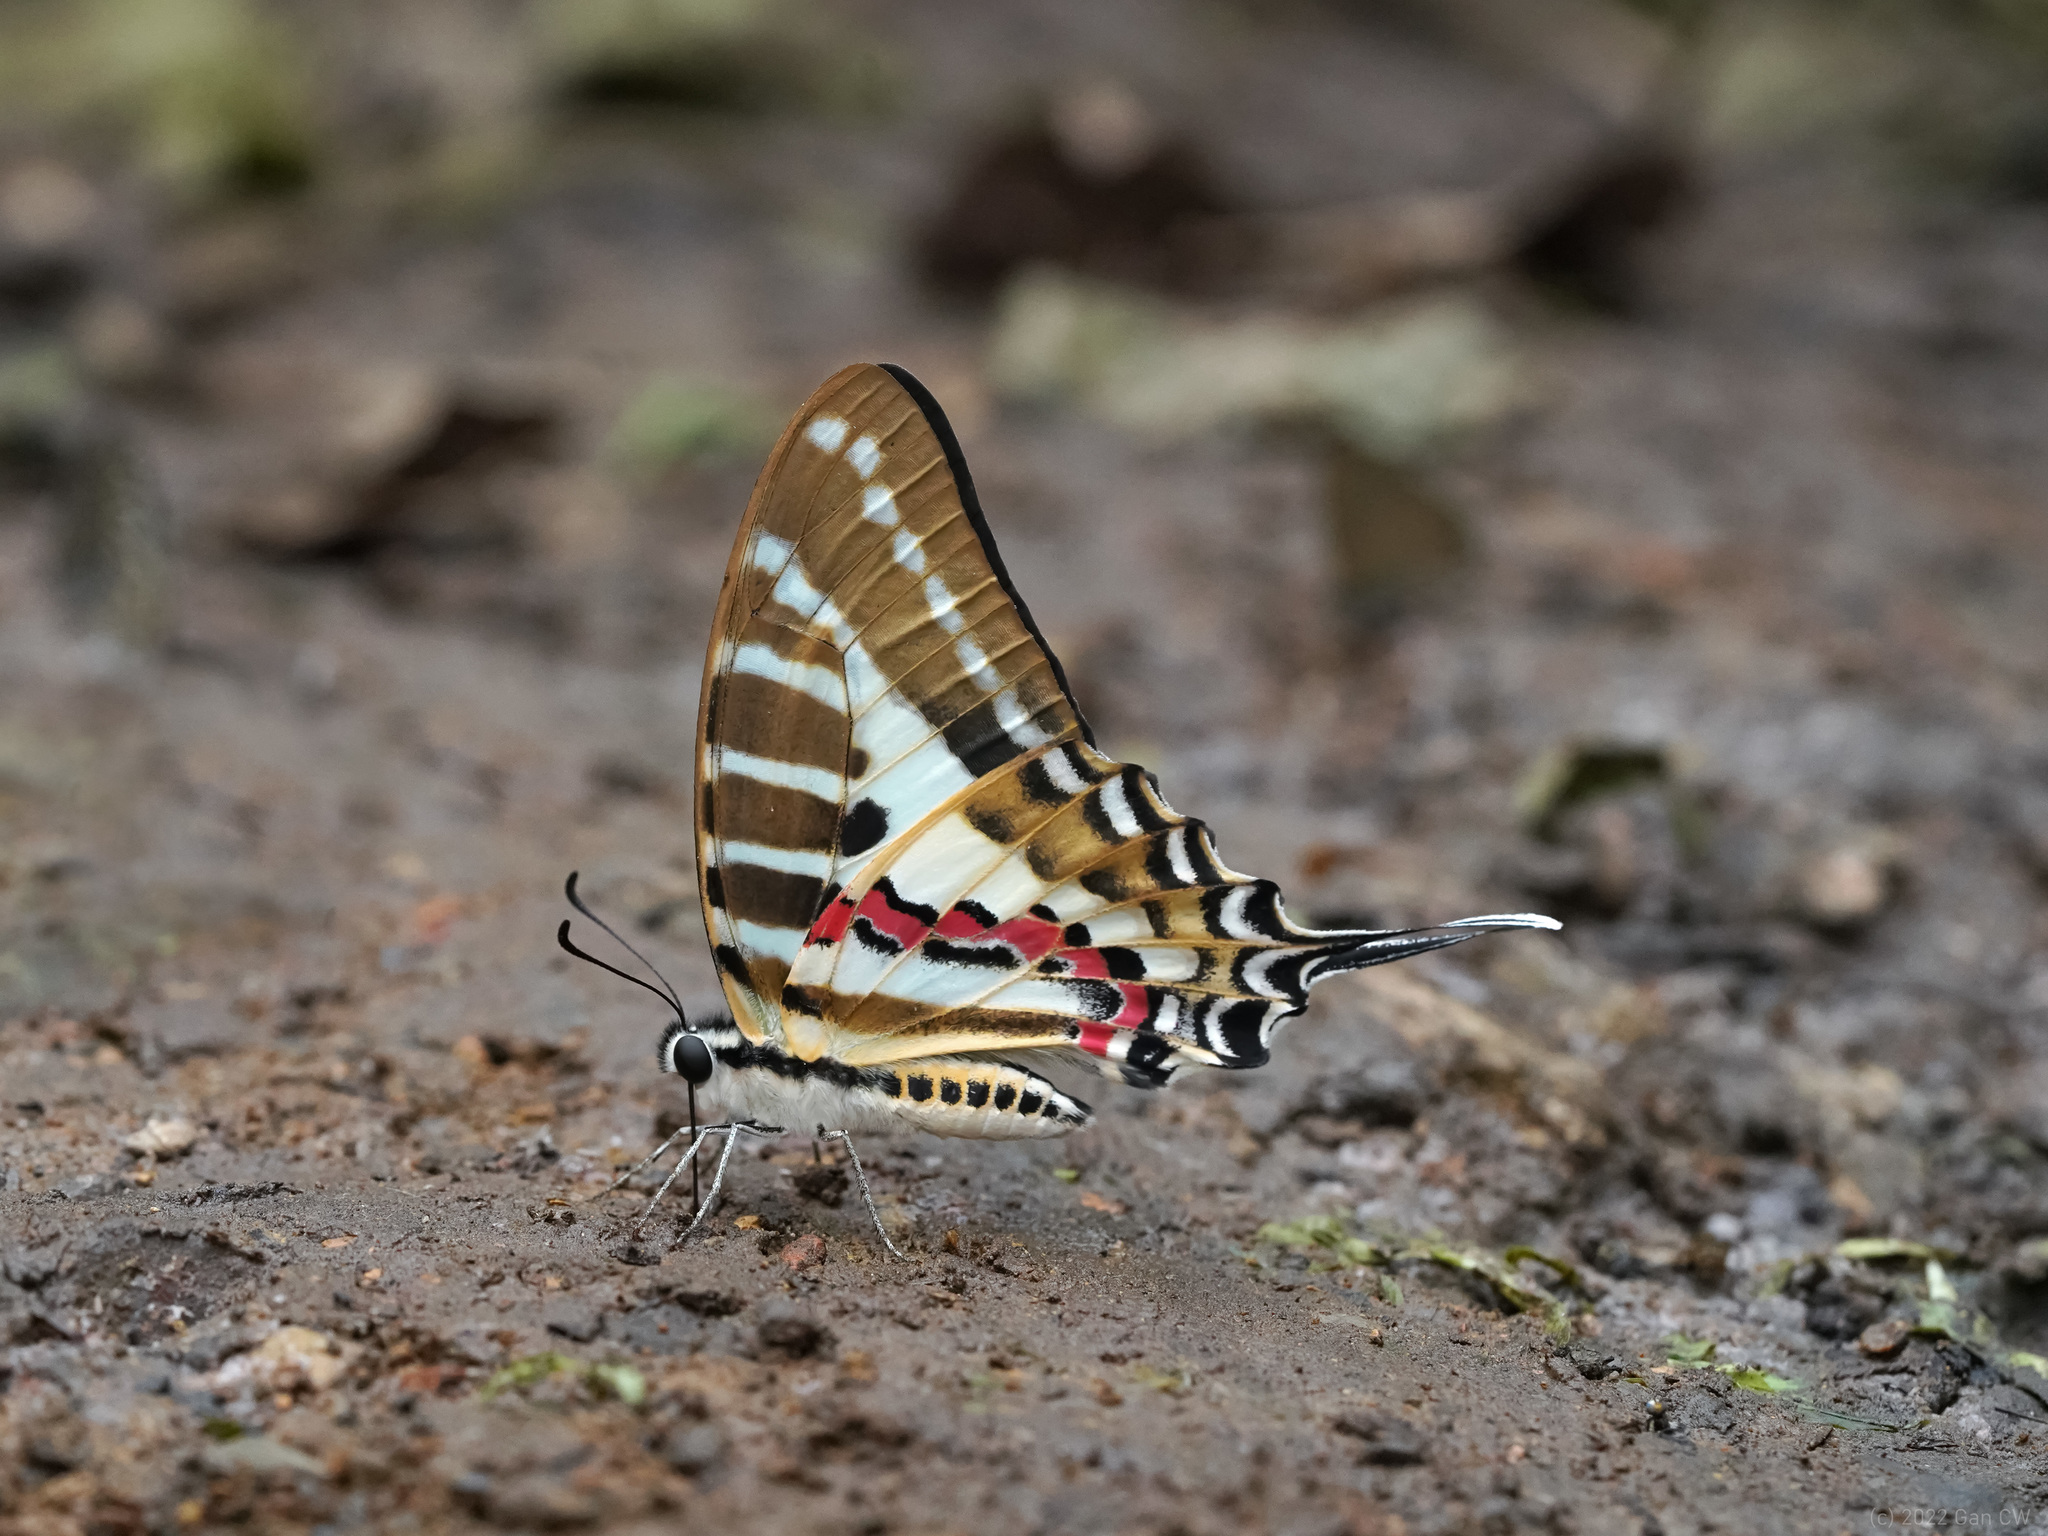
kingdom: Animalia
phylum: Arthropoda
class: Insecta
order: Lepidoptera
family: Papilionidae
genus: Graphium
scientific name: Graphium nomius
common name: Spot swordtail
